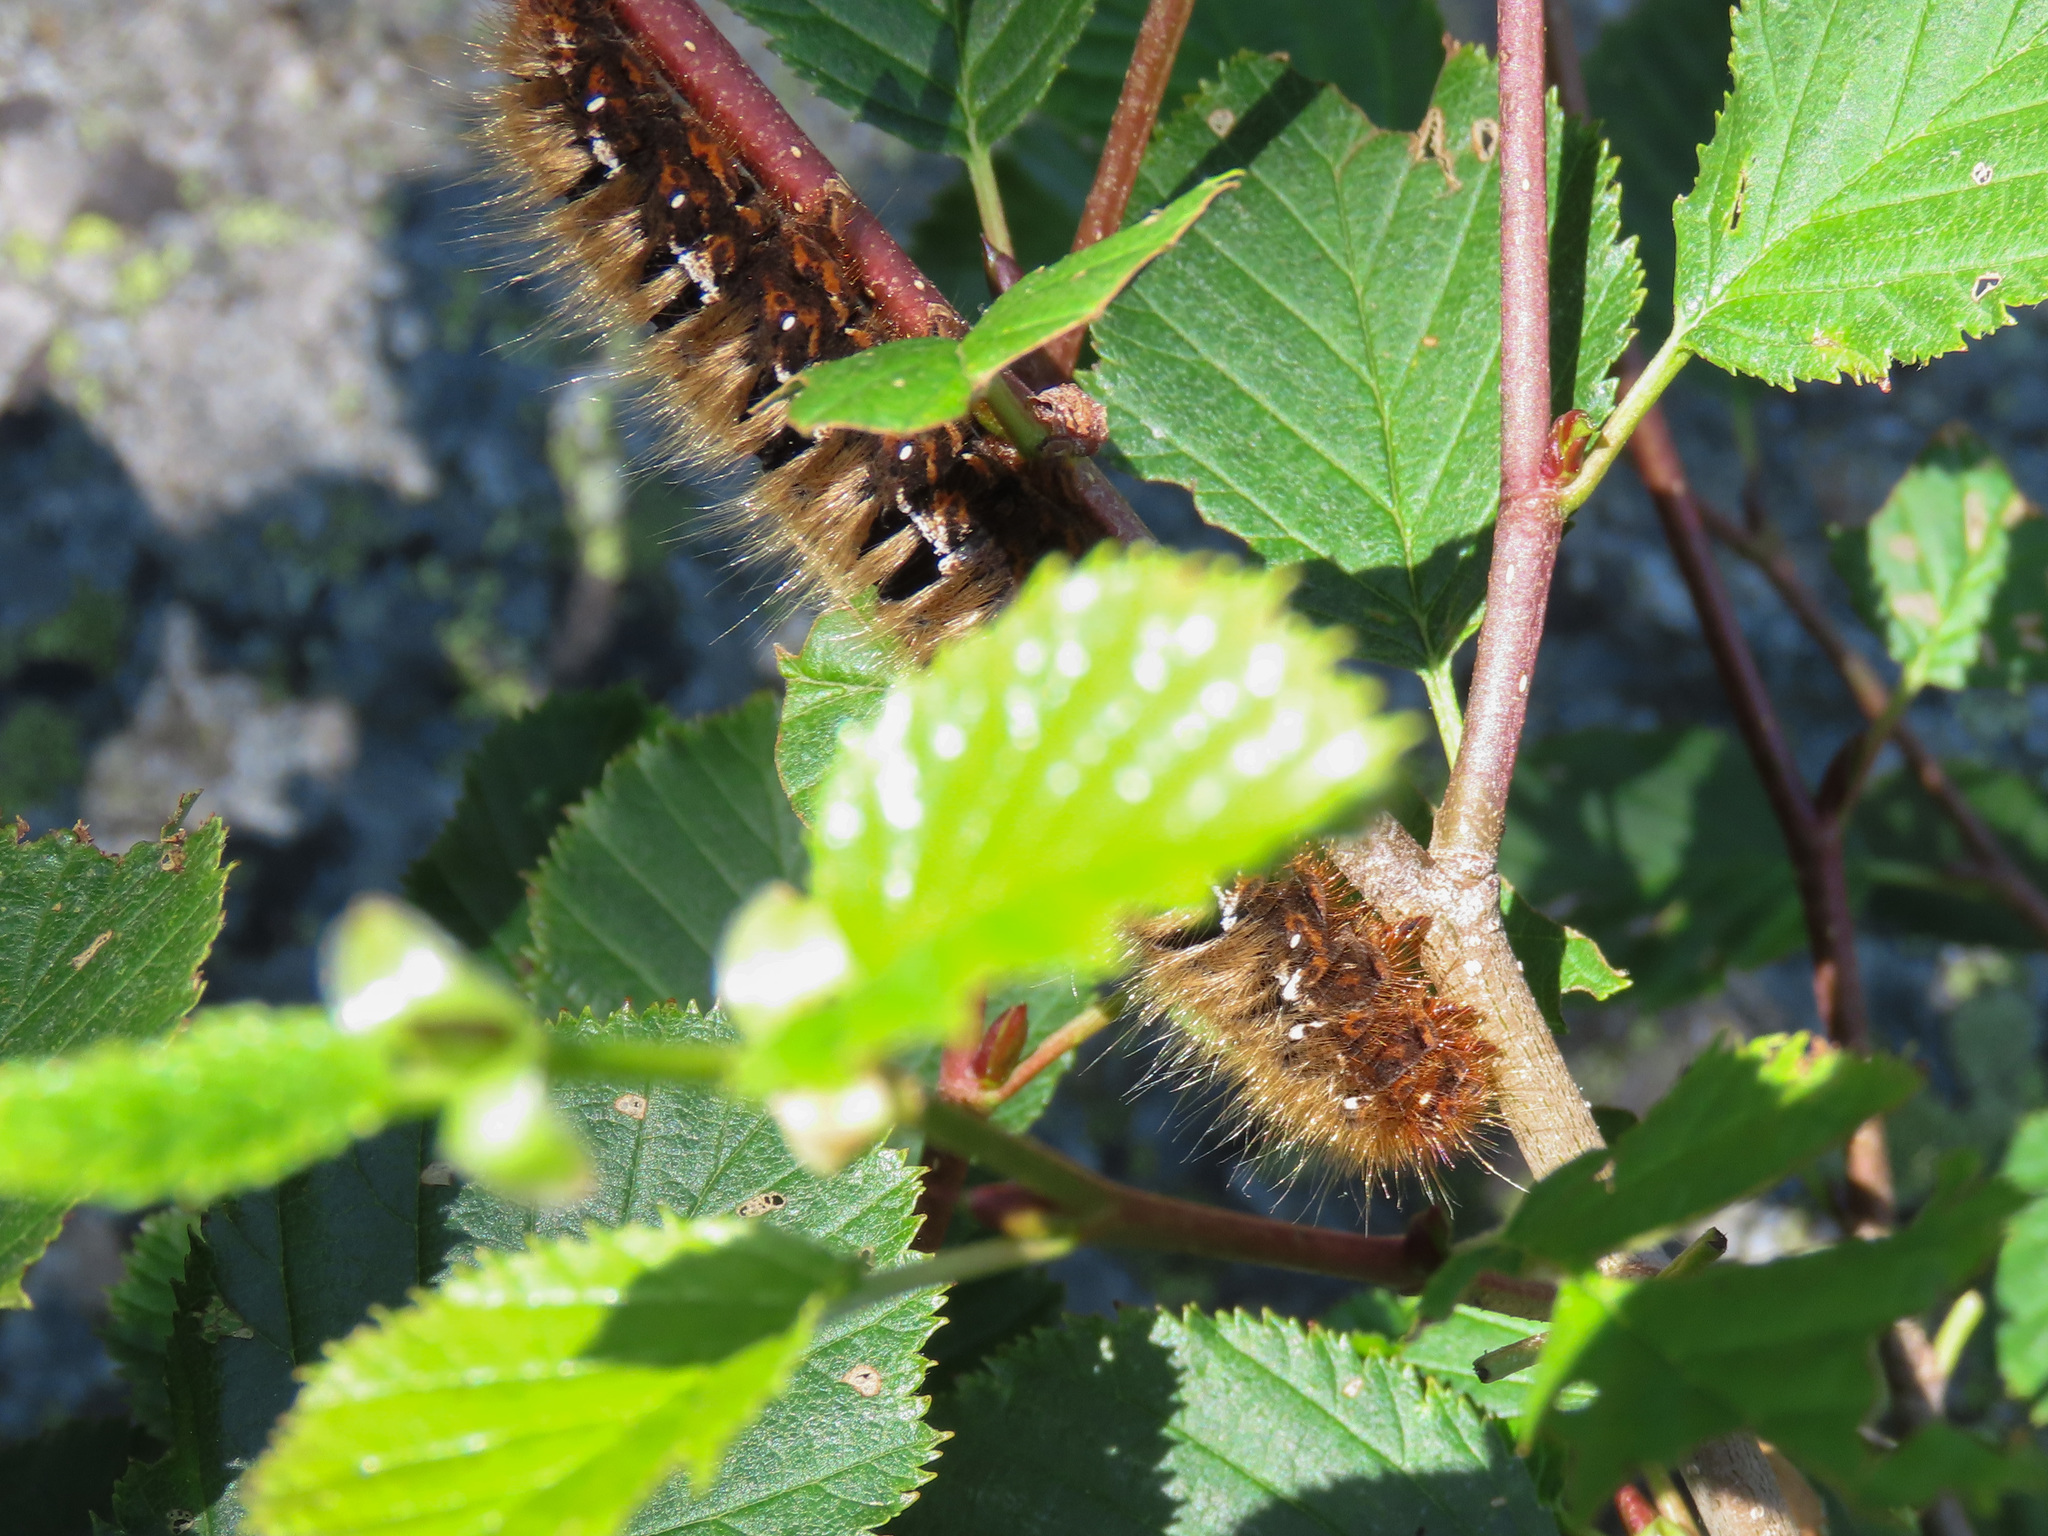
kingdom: Animalia
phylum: Arthropoda
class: Insecta
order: Lepidoptera
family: Lasiocampidae
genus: Lasiocampa
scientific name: Lasiocampa quercus
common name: Oak eggar
